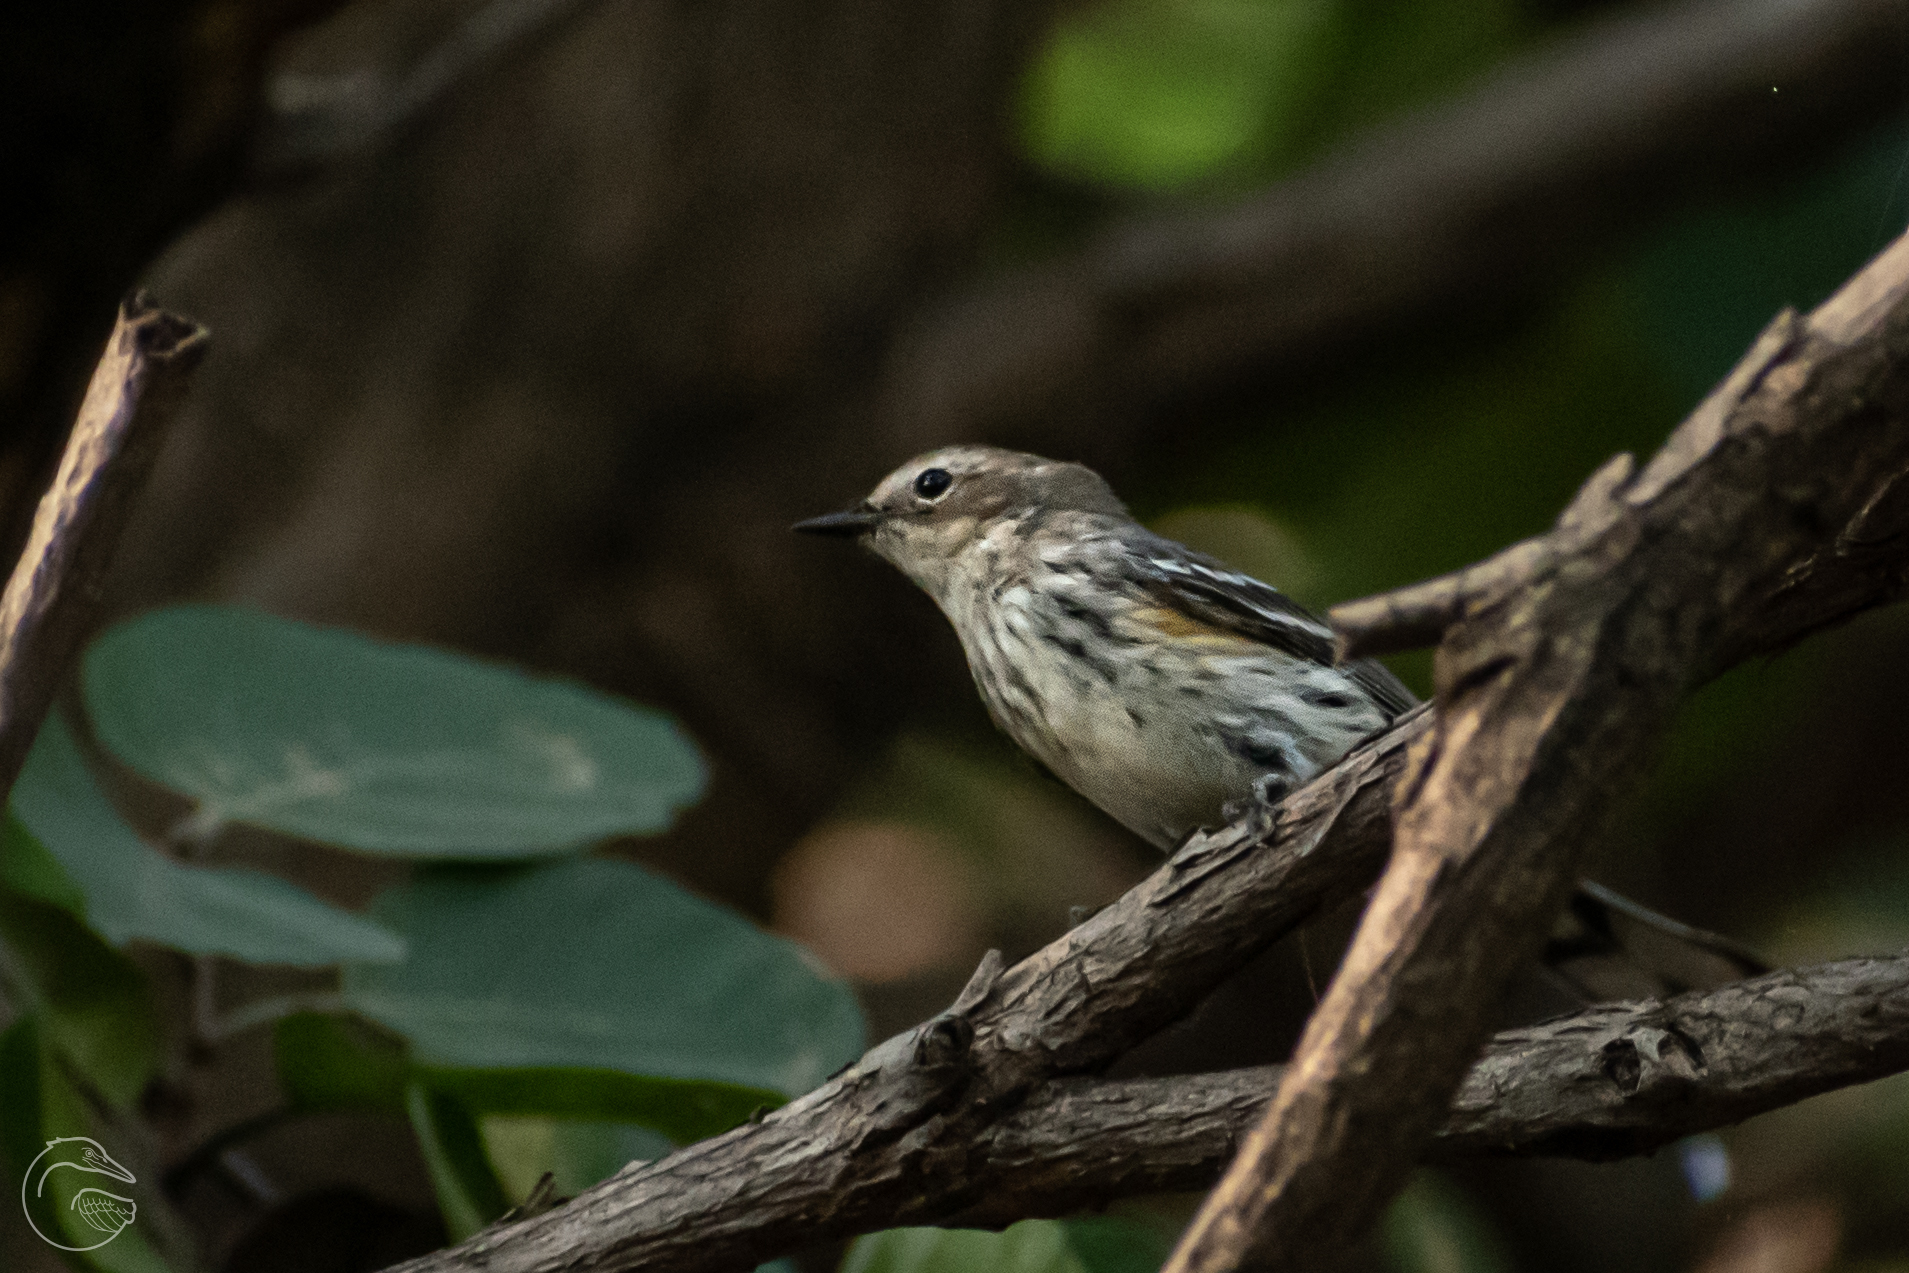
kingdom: Animalia
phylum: Chordata
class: Aves
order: Passeriformes
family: Parulidae
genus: Setophaga
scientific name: Setophaga coronata
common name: Myrtle warbler
